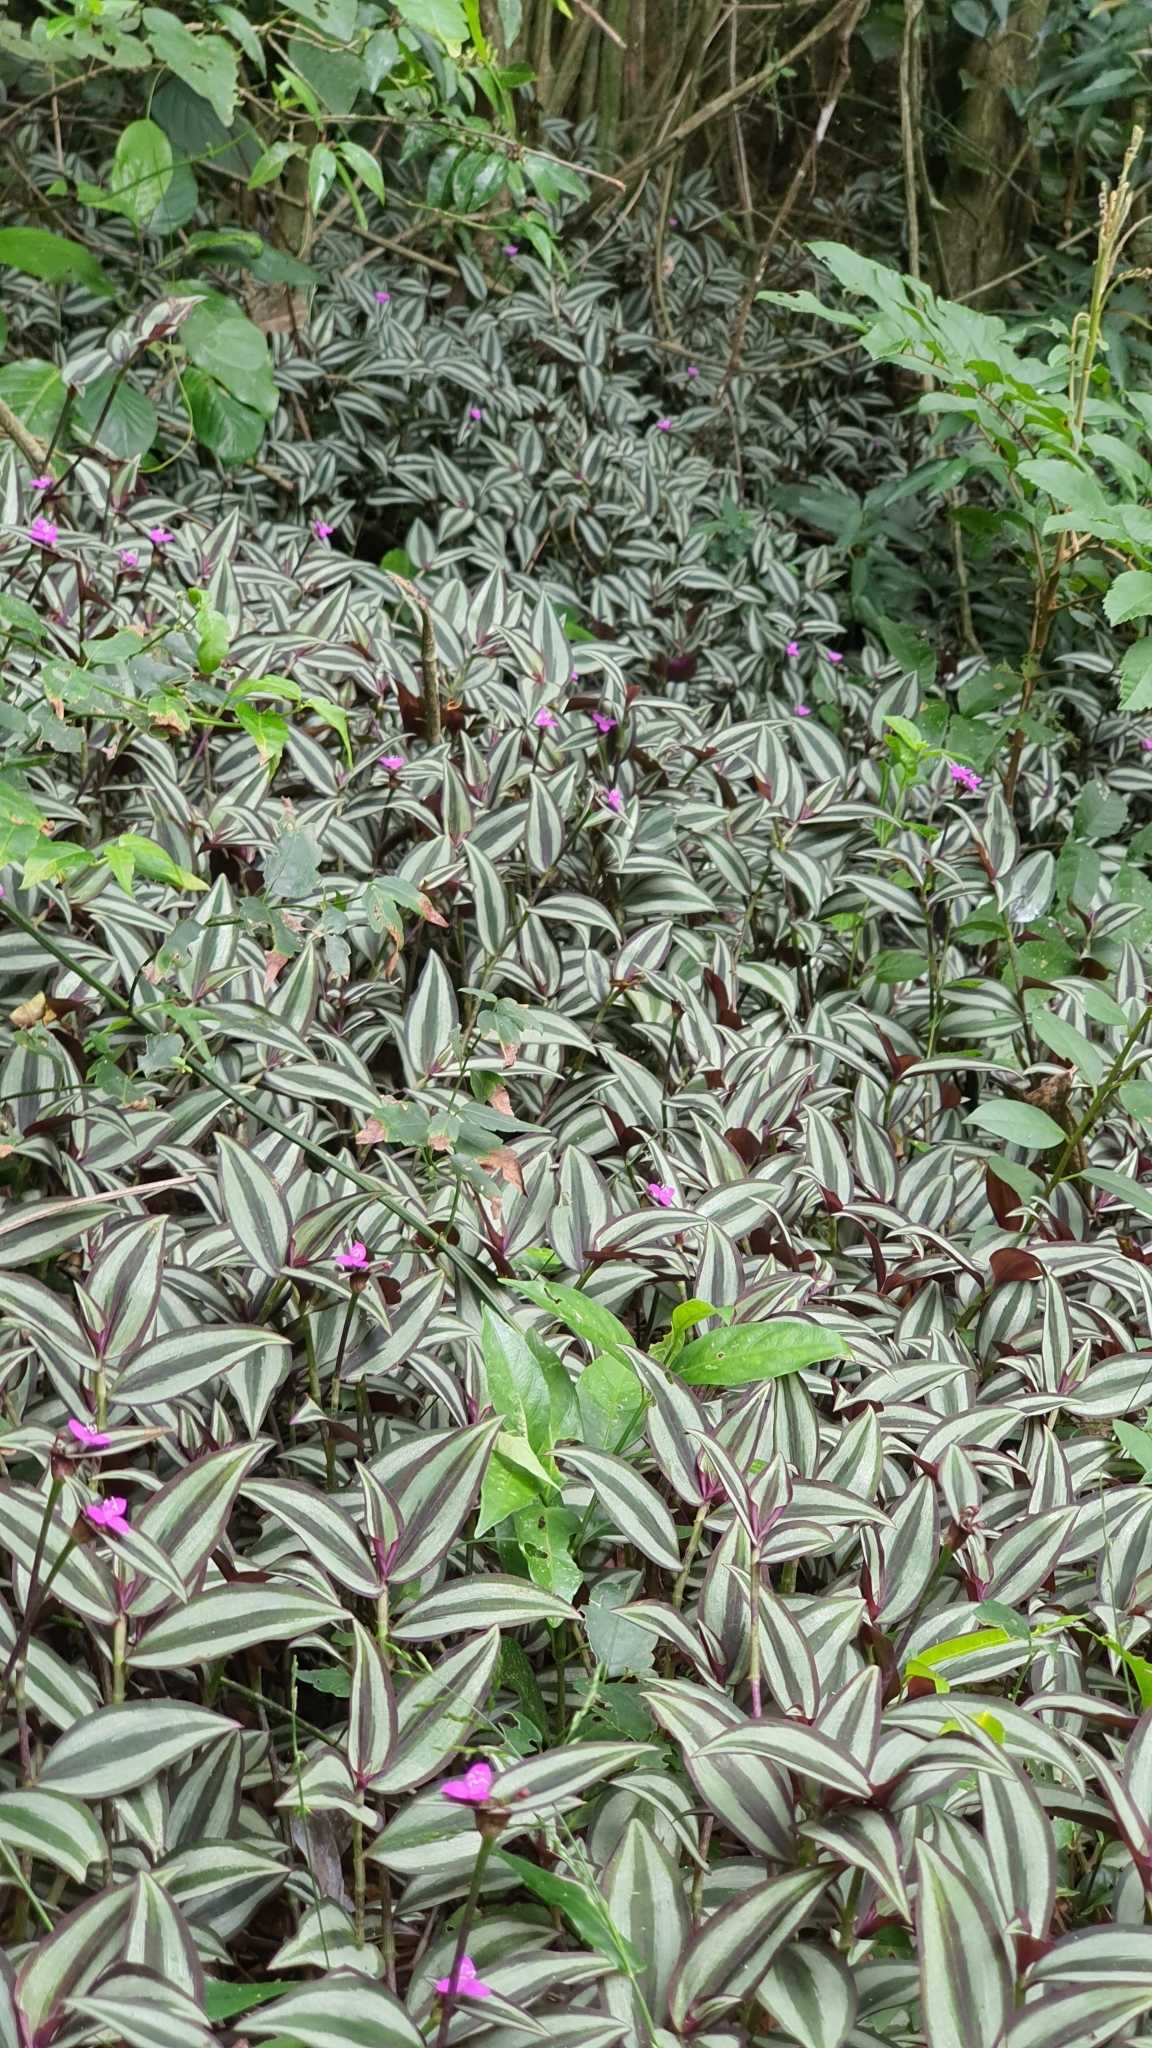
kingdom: Plantae
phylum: Tracheophyta
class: Liliopsida
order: Commelinales
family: Commelinaceae
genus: Tradescantia
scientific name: Tradescantia zebrina
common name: Inchplant
